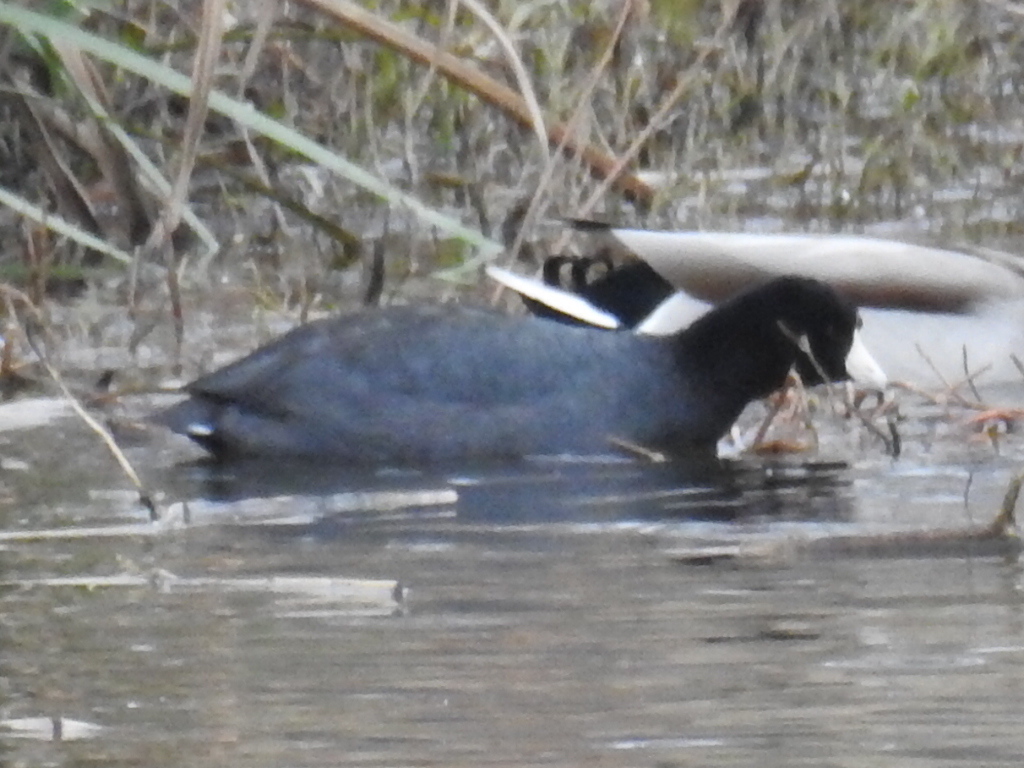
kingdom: Animalia
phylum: Chordata
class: Aves
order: Gruiformes
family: Rallidae
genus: Fulica
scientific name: Fulica americana
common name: American coot
